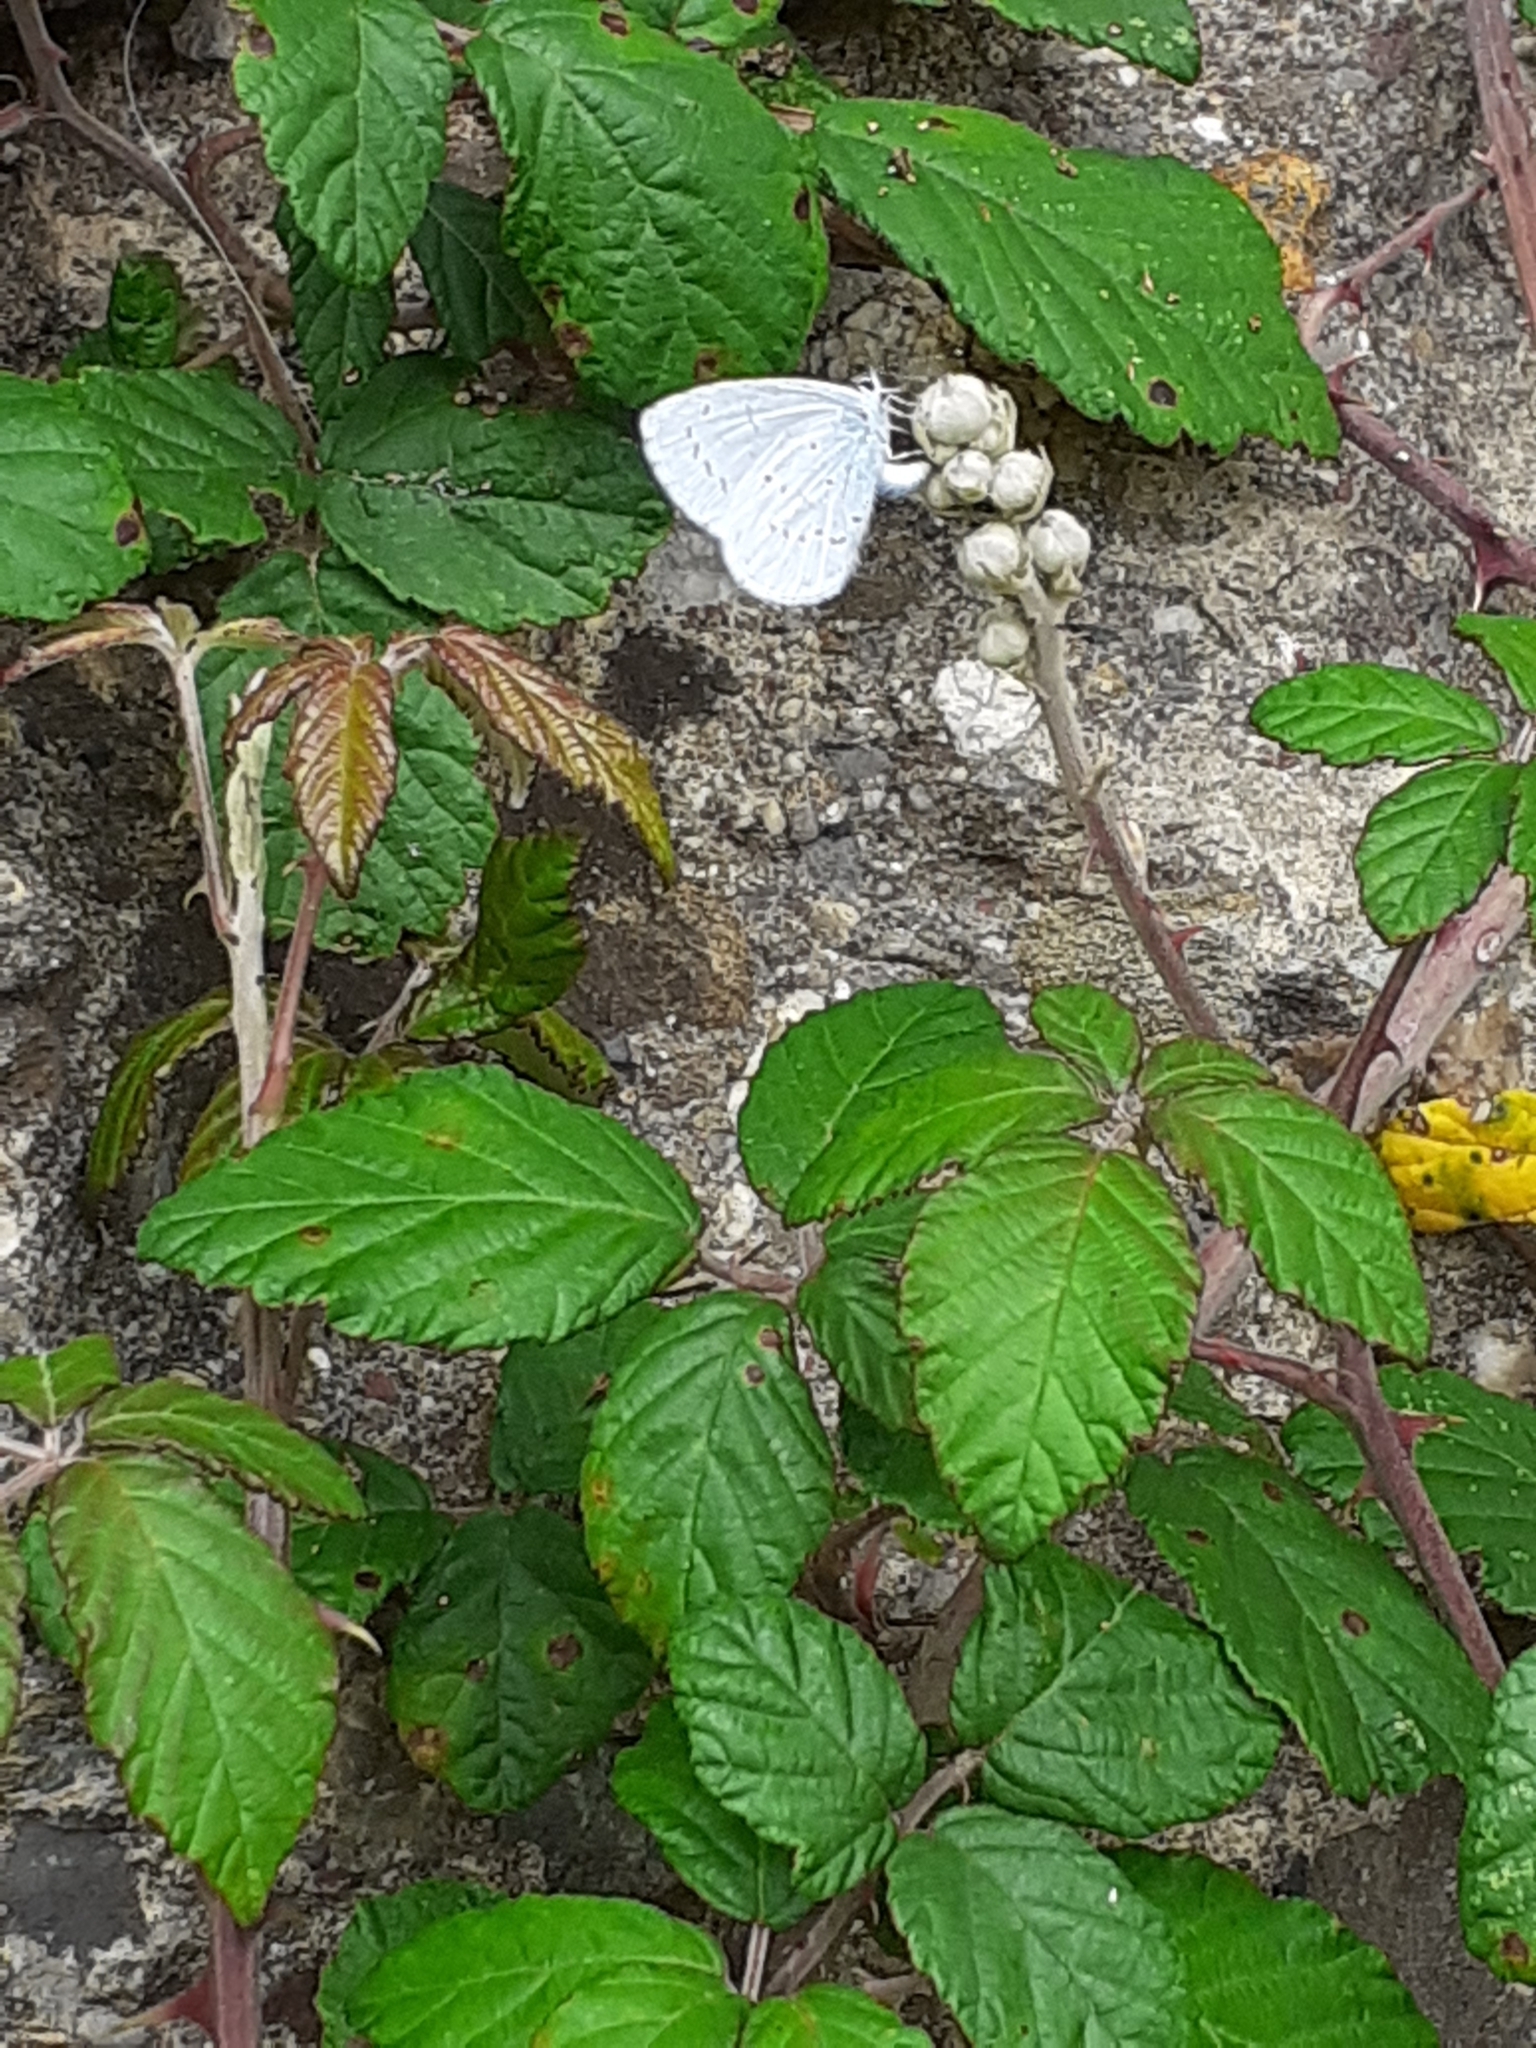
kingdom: Animalia
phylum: Arthropoda
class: Insecta
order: Lepidoptera
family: Lycaenidae
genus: Celastrina
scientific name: Celastrina argiolus
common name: Holly blue
